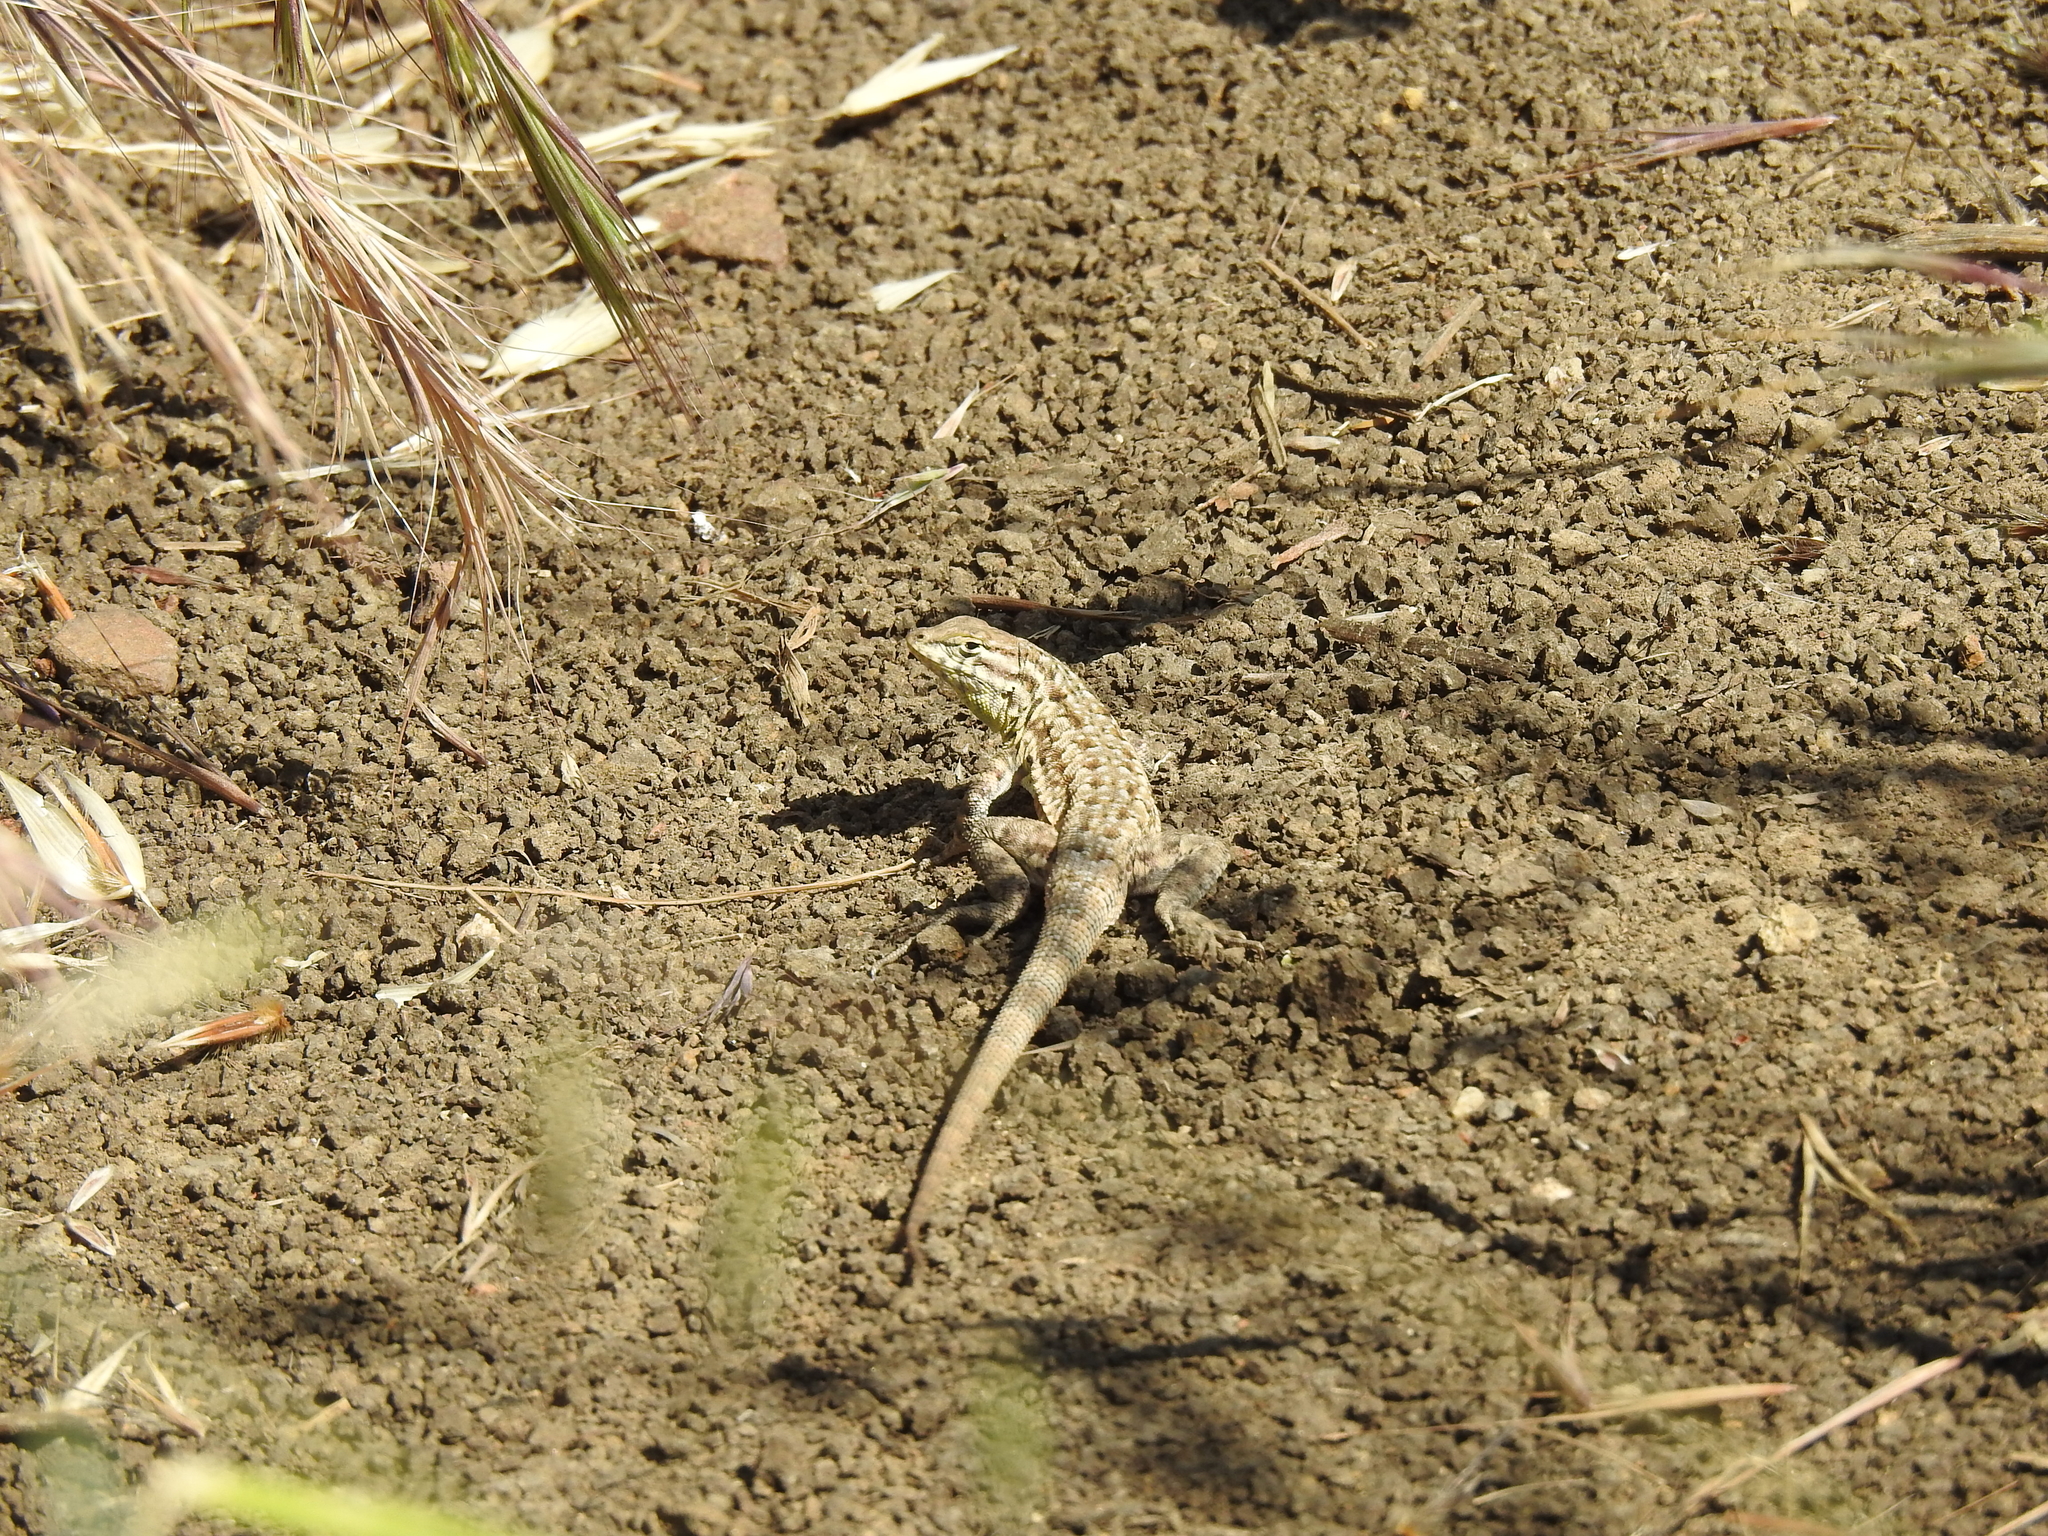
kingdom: Animalia
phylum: Chordata
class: Squamata
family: Phrynosomatidae
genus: Uta
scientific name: Uta stansburiana
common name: Side-blotched lizard
